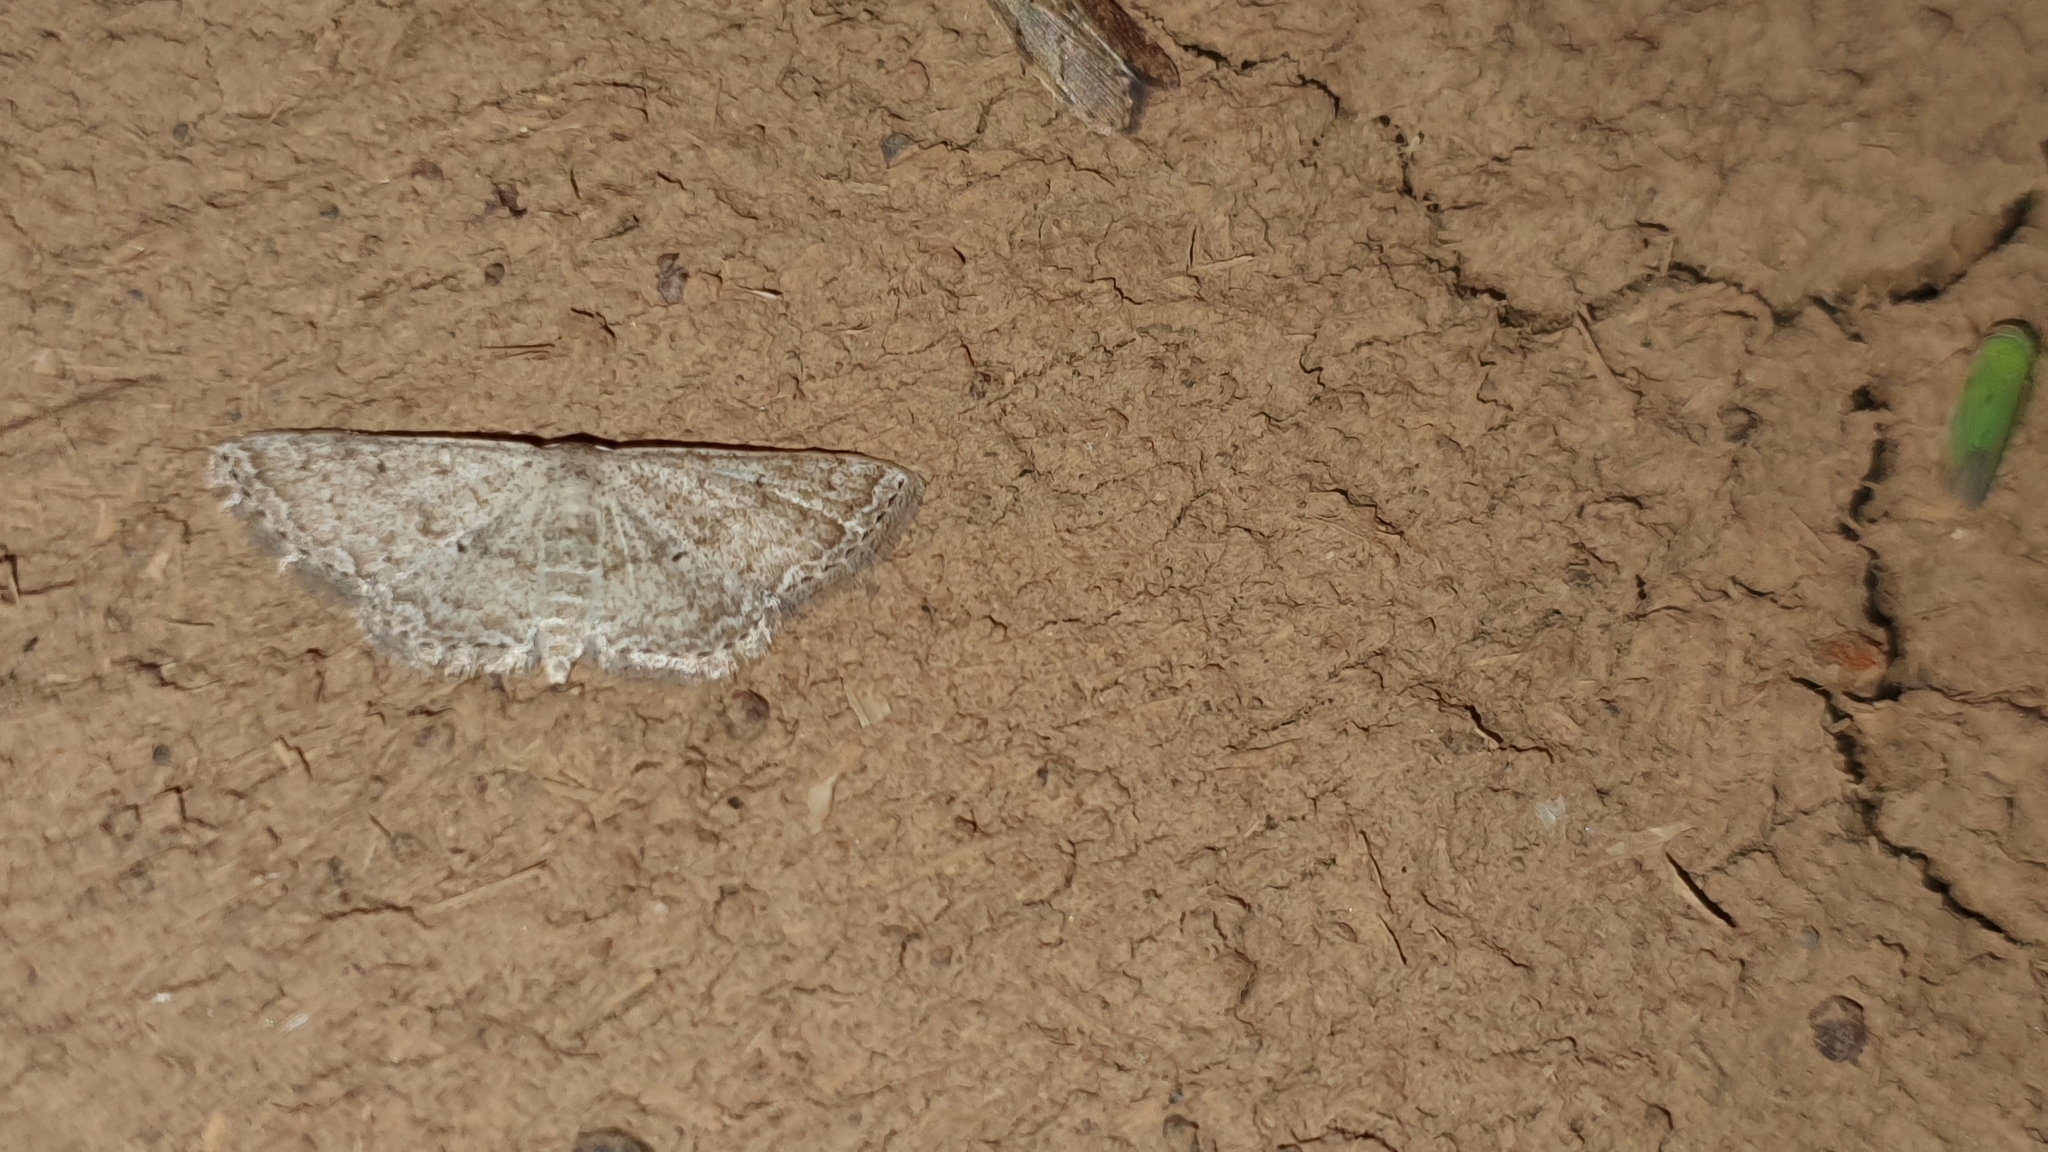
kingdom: Animalia
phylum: Arthropoda
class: Insecta
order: Lepidoptera
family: Geometridae
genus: Scopula
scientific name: Scopula adeptaria
